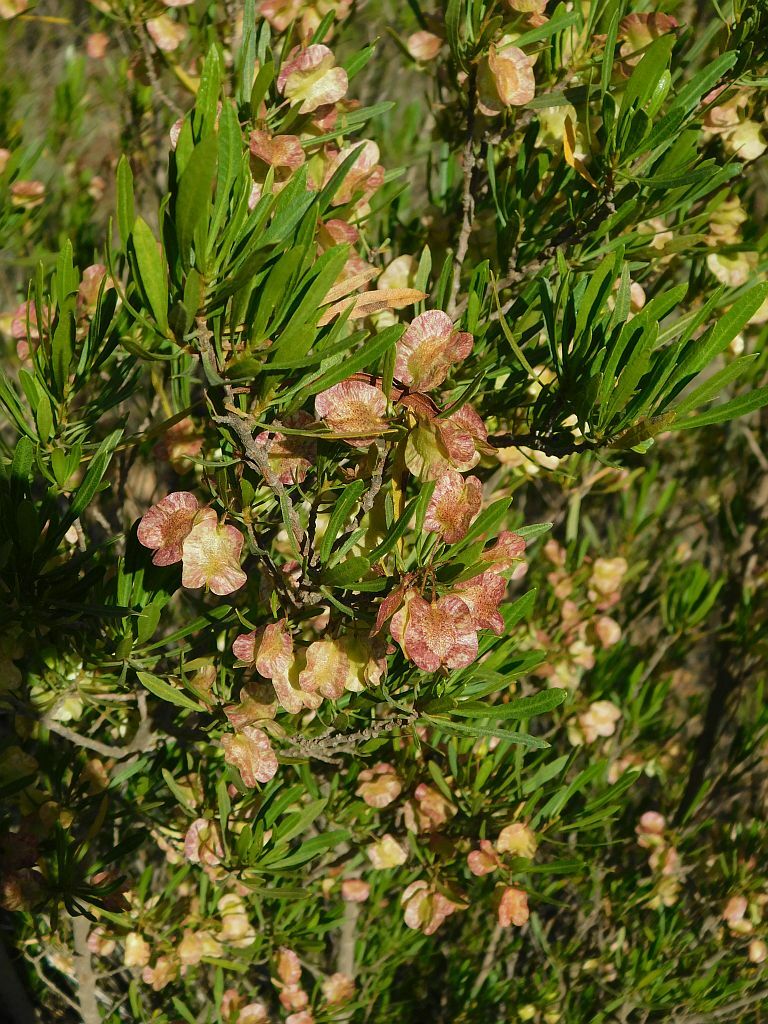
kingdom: Plantae
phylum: Tracheophyta
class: Magnoliopsida
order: Sapindales
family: Sapindaceae
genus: Dodonaea
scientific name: Dodonaea viscosa
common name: Hopbush
